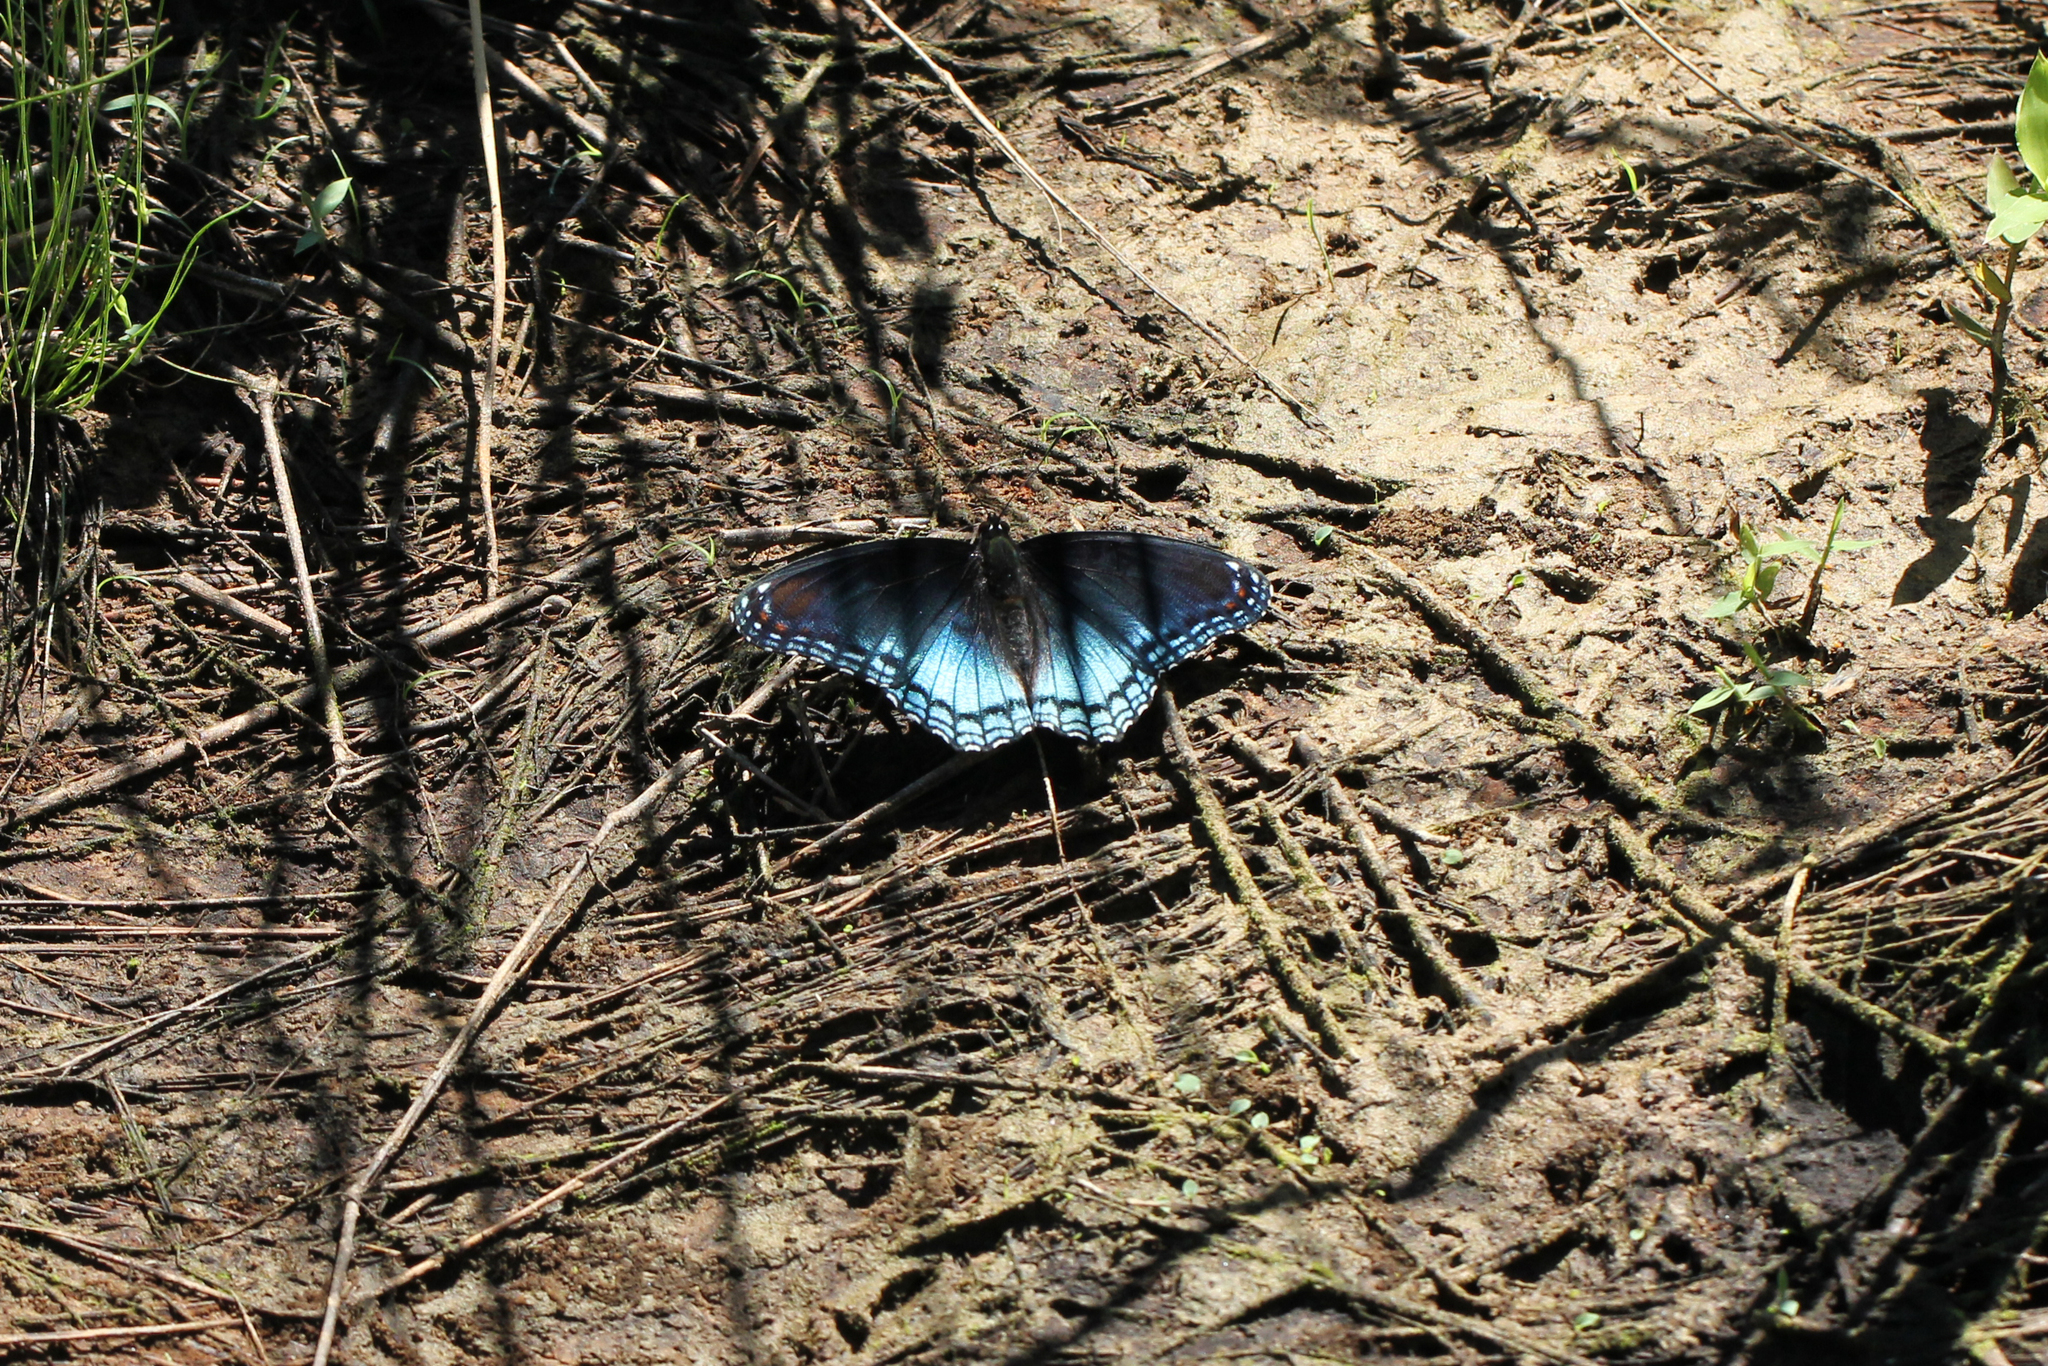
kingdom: Animalia
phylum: Arthropoda
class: Insecta
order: Lepidoptera
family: Nymphalidae
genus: Limenitis
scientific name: Limenitis astyanax
